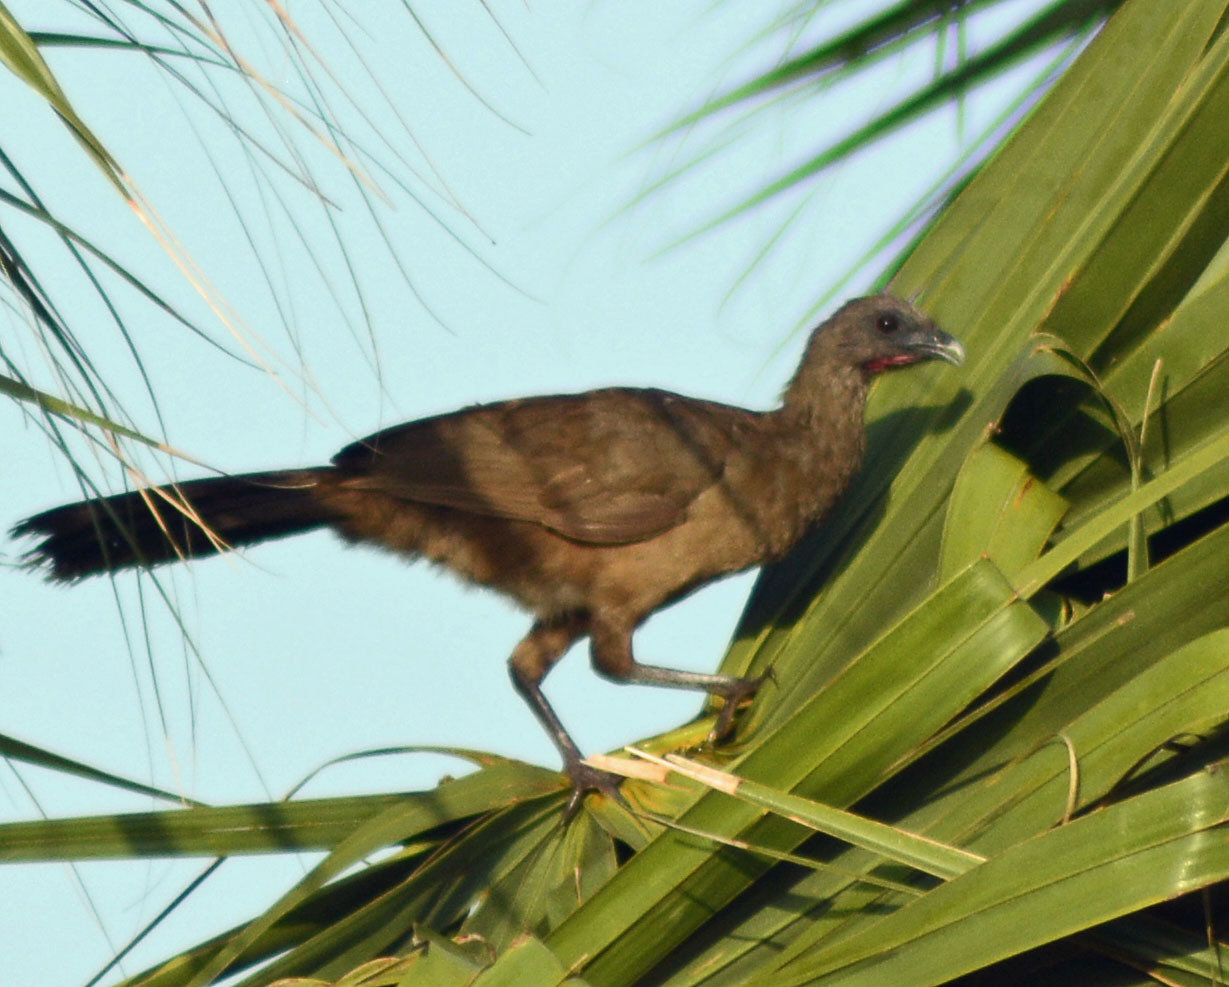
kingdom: Animalia
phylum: Chordata
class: Aves
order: Galliformes
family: Cracidae
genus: Ortalis
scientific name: Ortalis vetula
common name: Plain chachalaca
